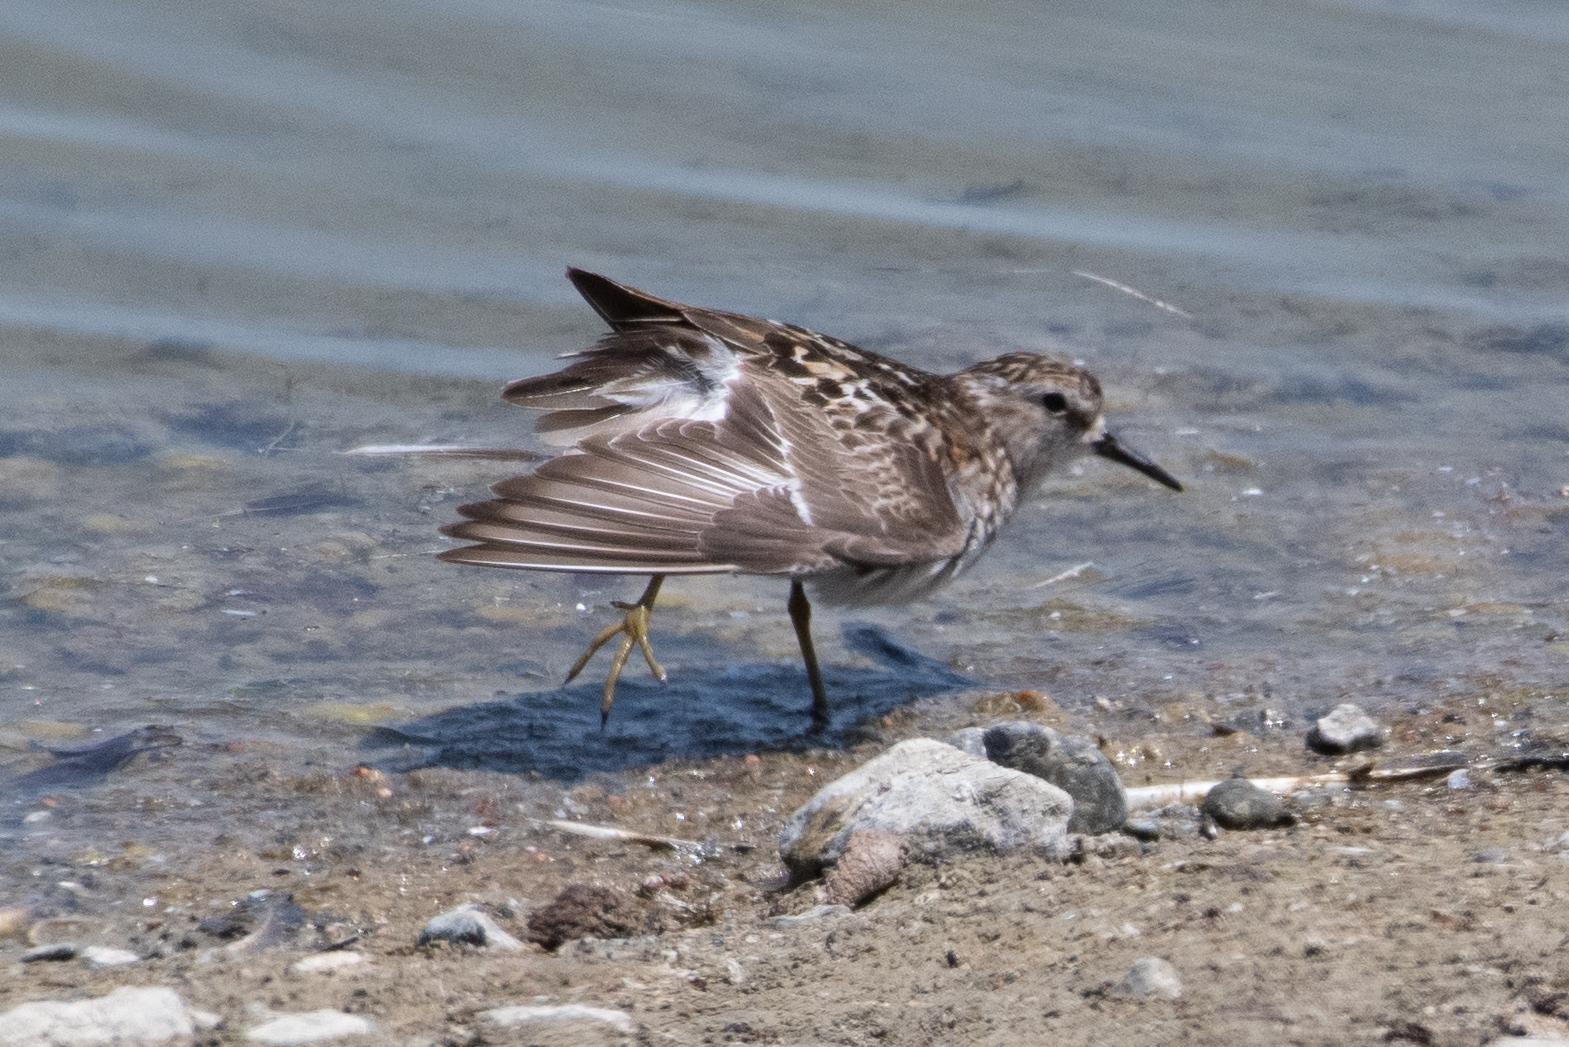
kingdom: Animalia
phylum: Chordata
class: Aves
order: Charadriiformes
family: Scolopacidae
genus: Calidris
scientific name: Calidris minutilla
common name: Least sandpiper
